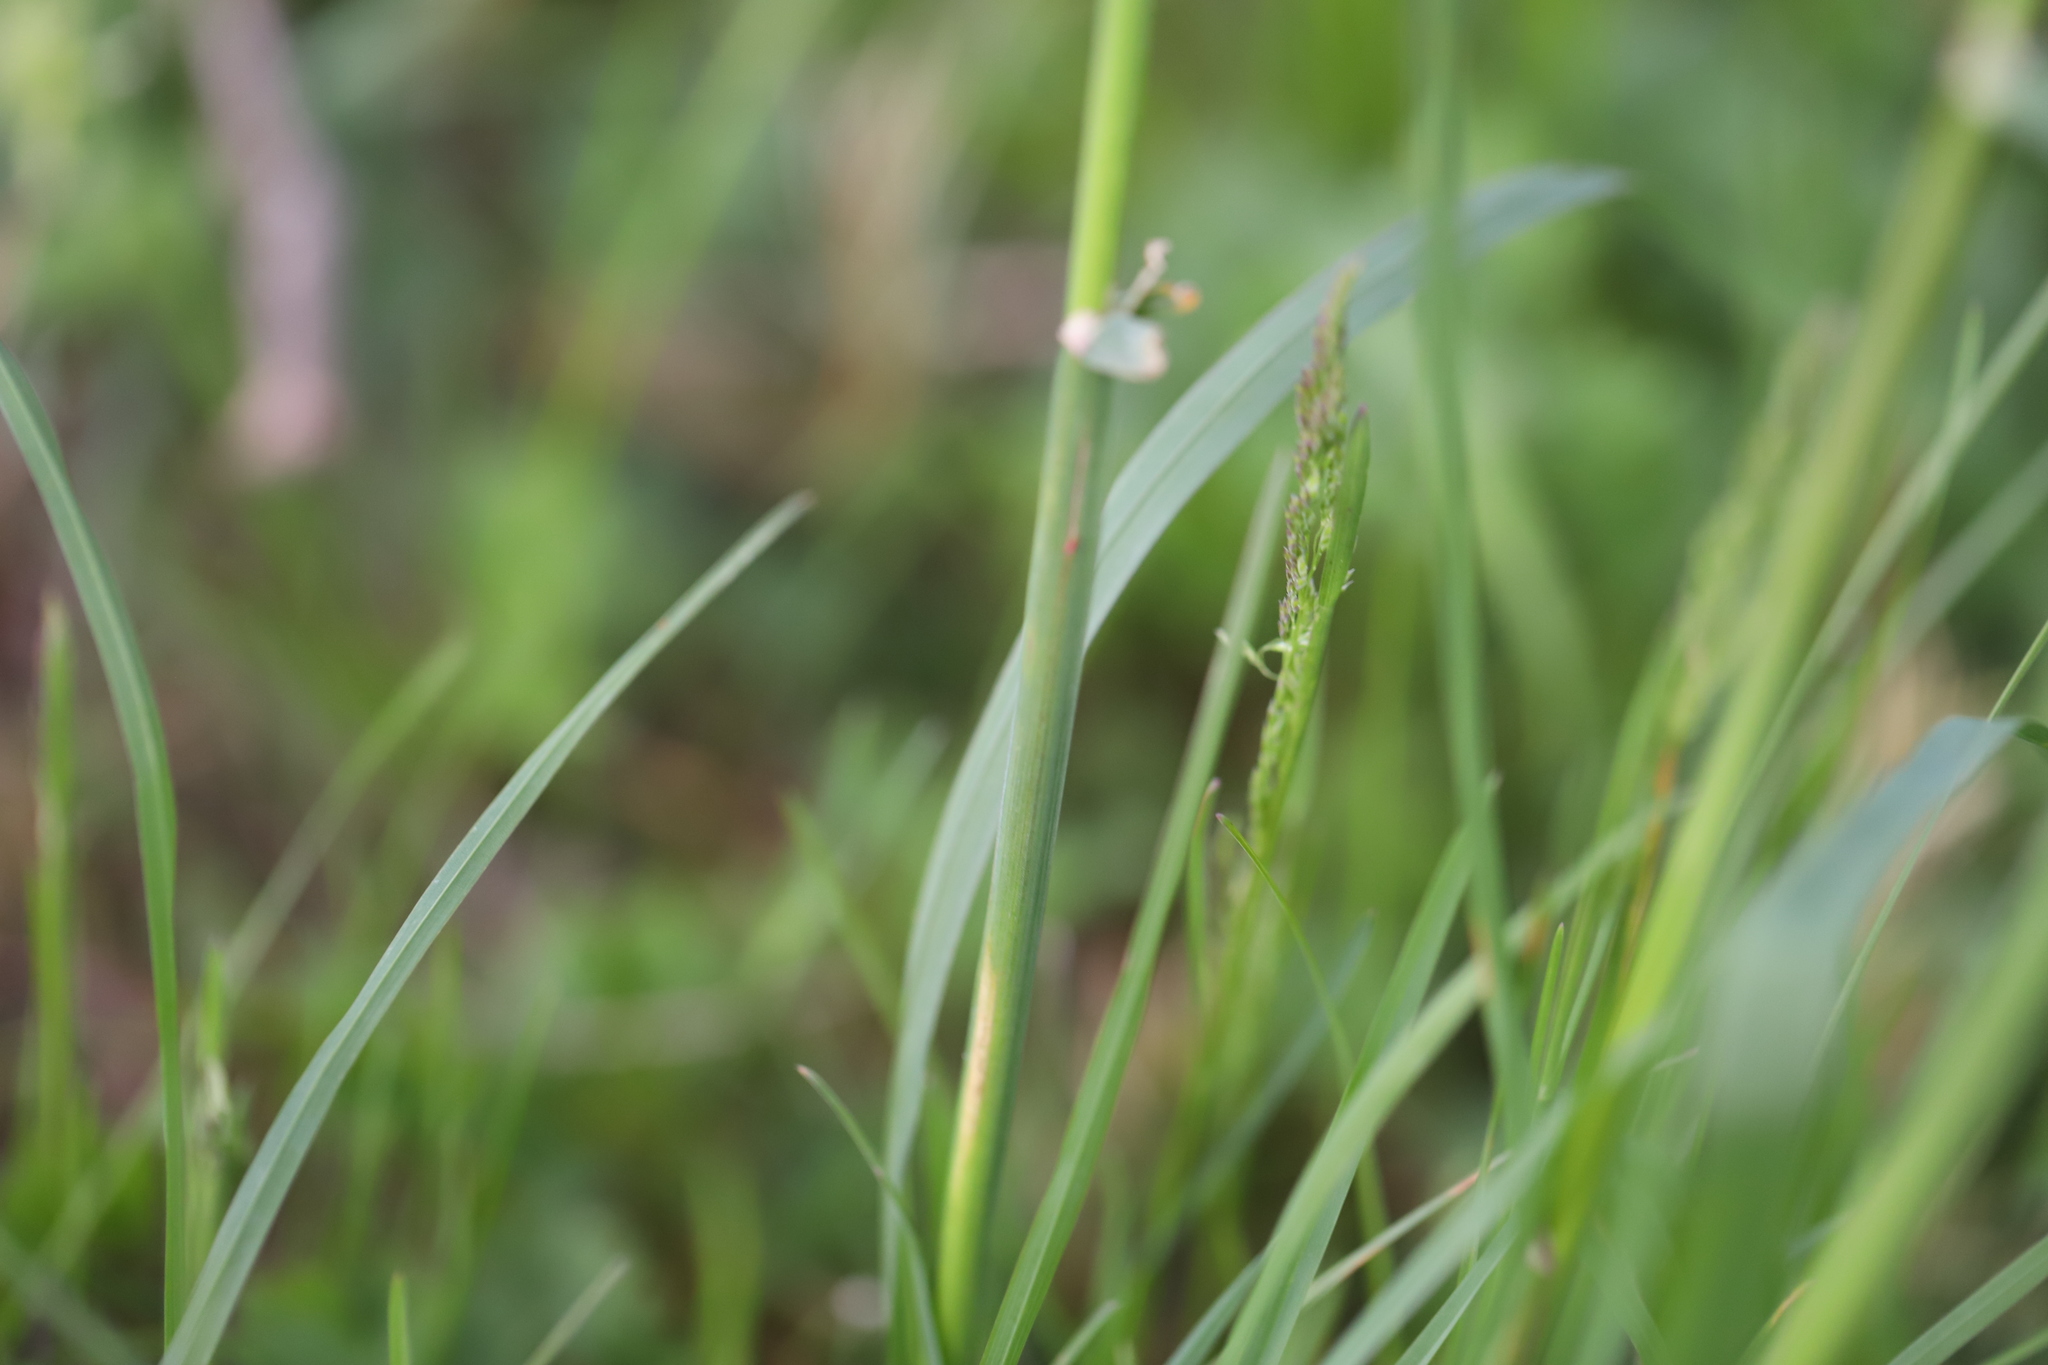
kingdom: Plantae
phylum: Tracheophyta
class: Liliopsida
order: Poales
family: Poaceae
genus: Dactylis
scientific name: Dactylis glomerata
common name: Orchardgrass
